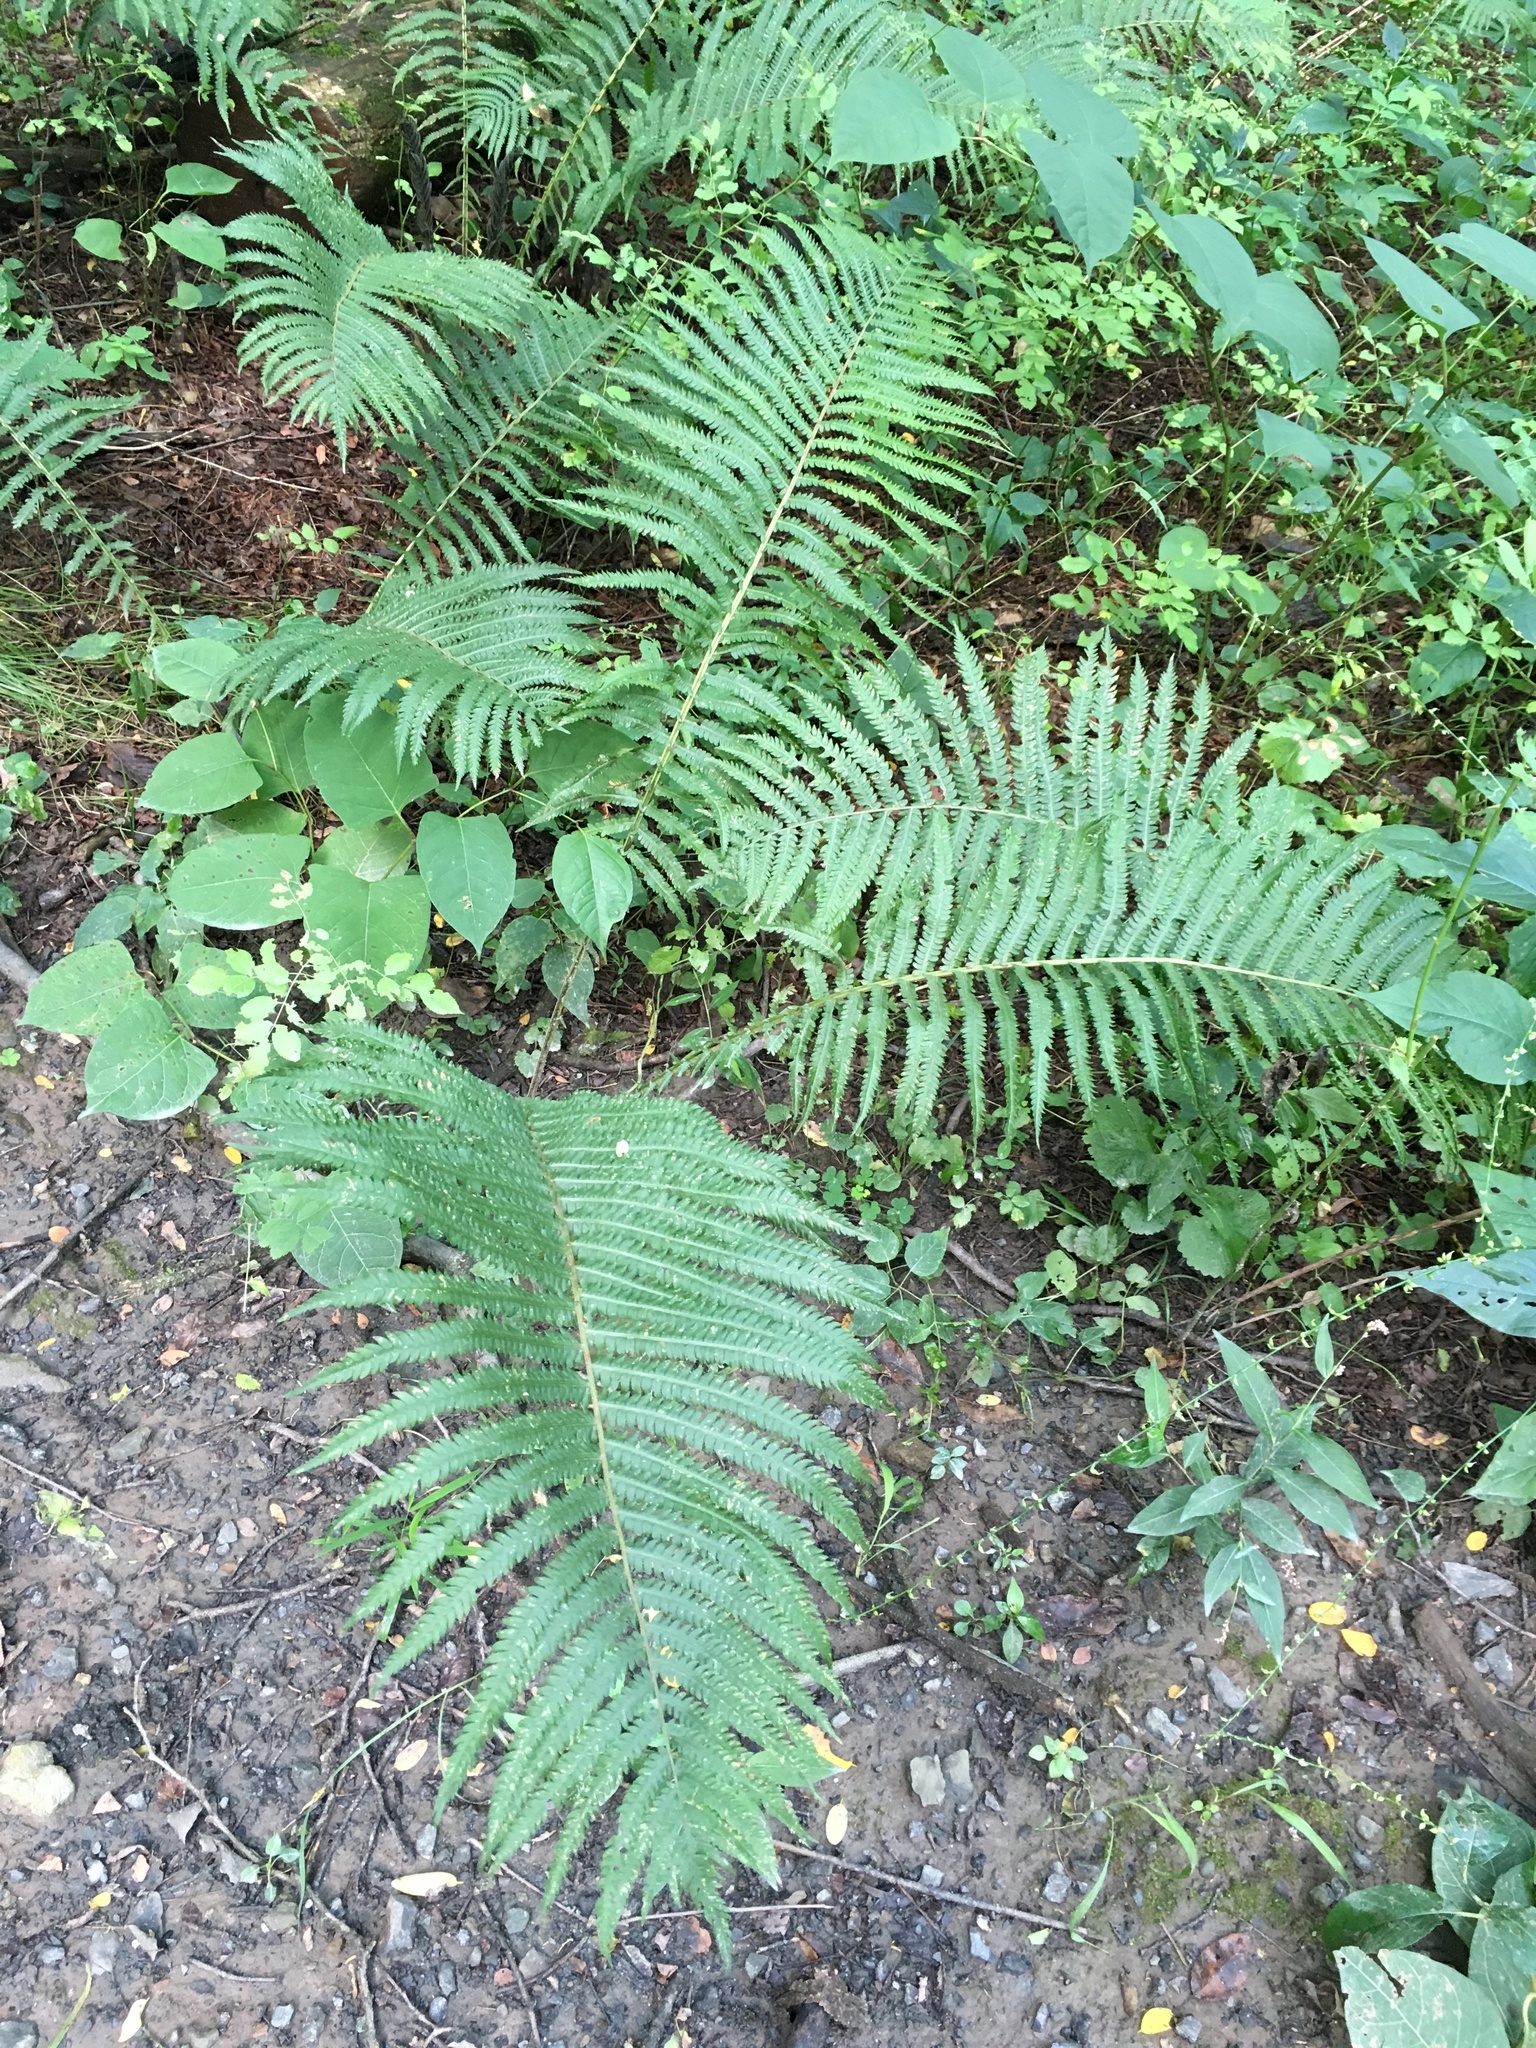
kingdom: Plantae
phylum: Tracheophyta
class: Polypodiopsida
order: Polypodiales
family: Onocleaceae
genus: Matteuccia
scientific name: Matteuccia struthiopteris
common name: Ostrich fern
